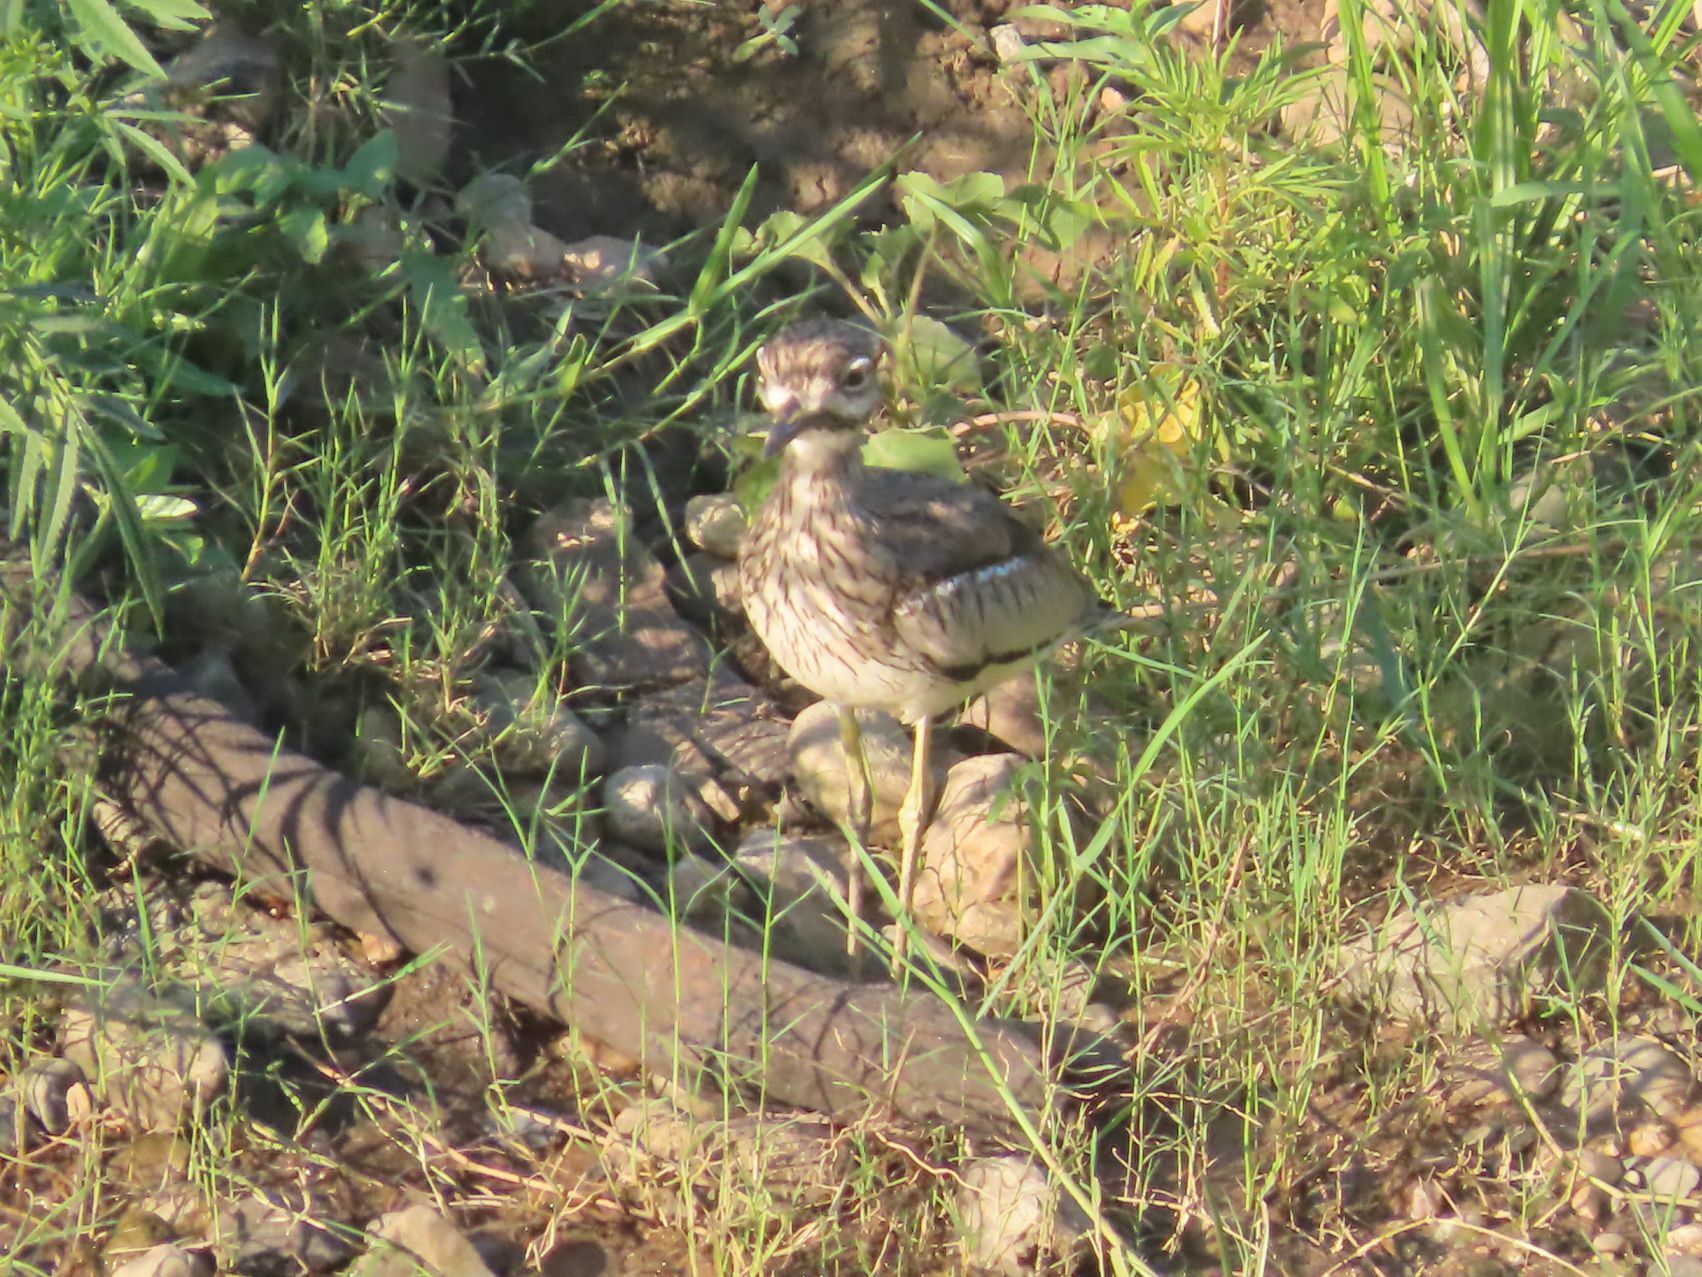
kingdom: Animalia
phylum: Chordata
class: Aves
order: Charadriiformes
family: Burhinidae
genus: Burhinus
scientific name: Burhinus vermiculatus
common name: Water thick-knee
